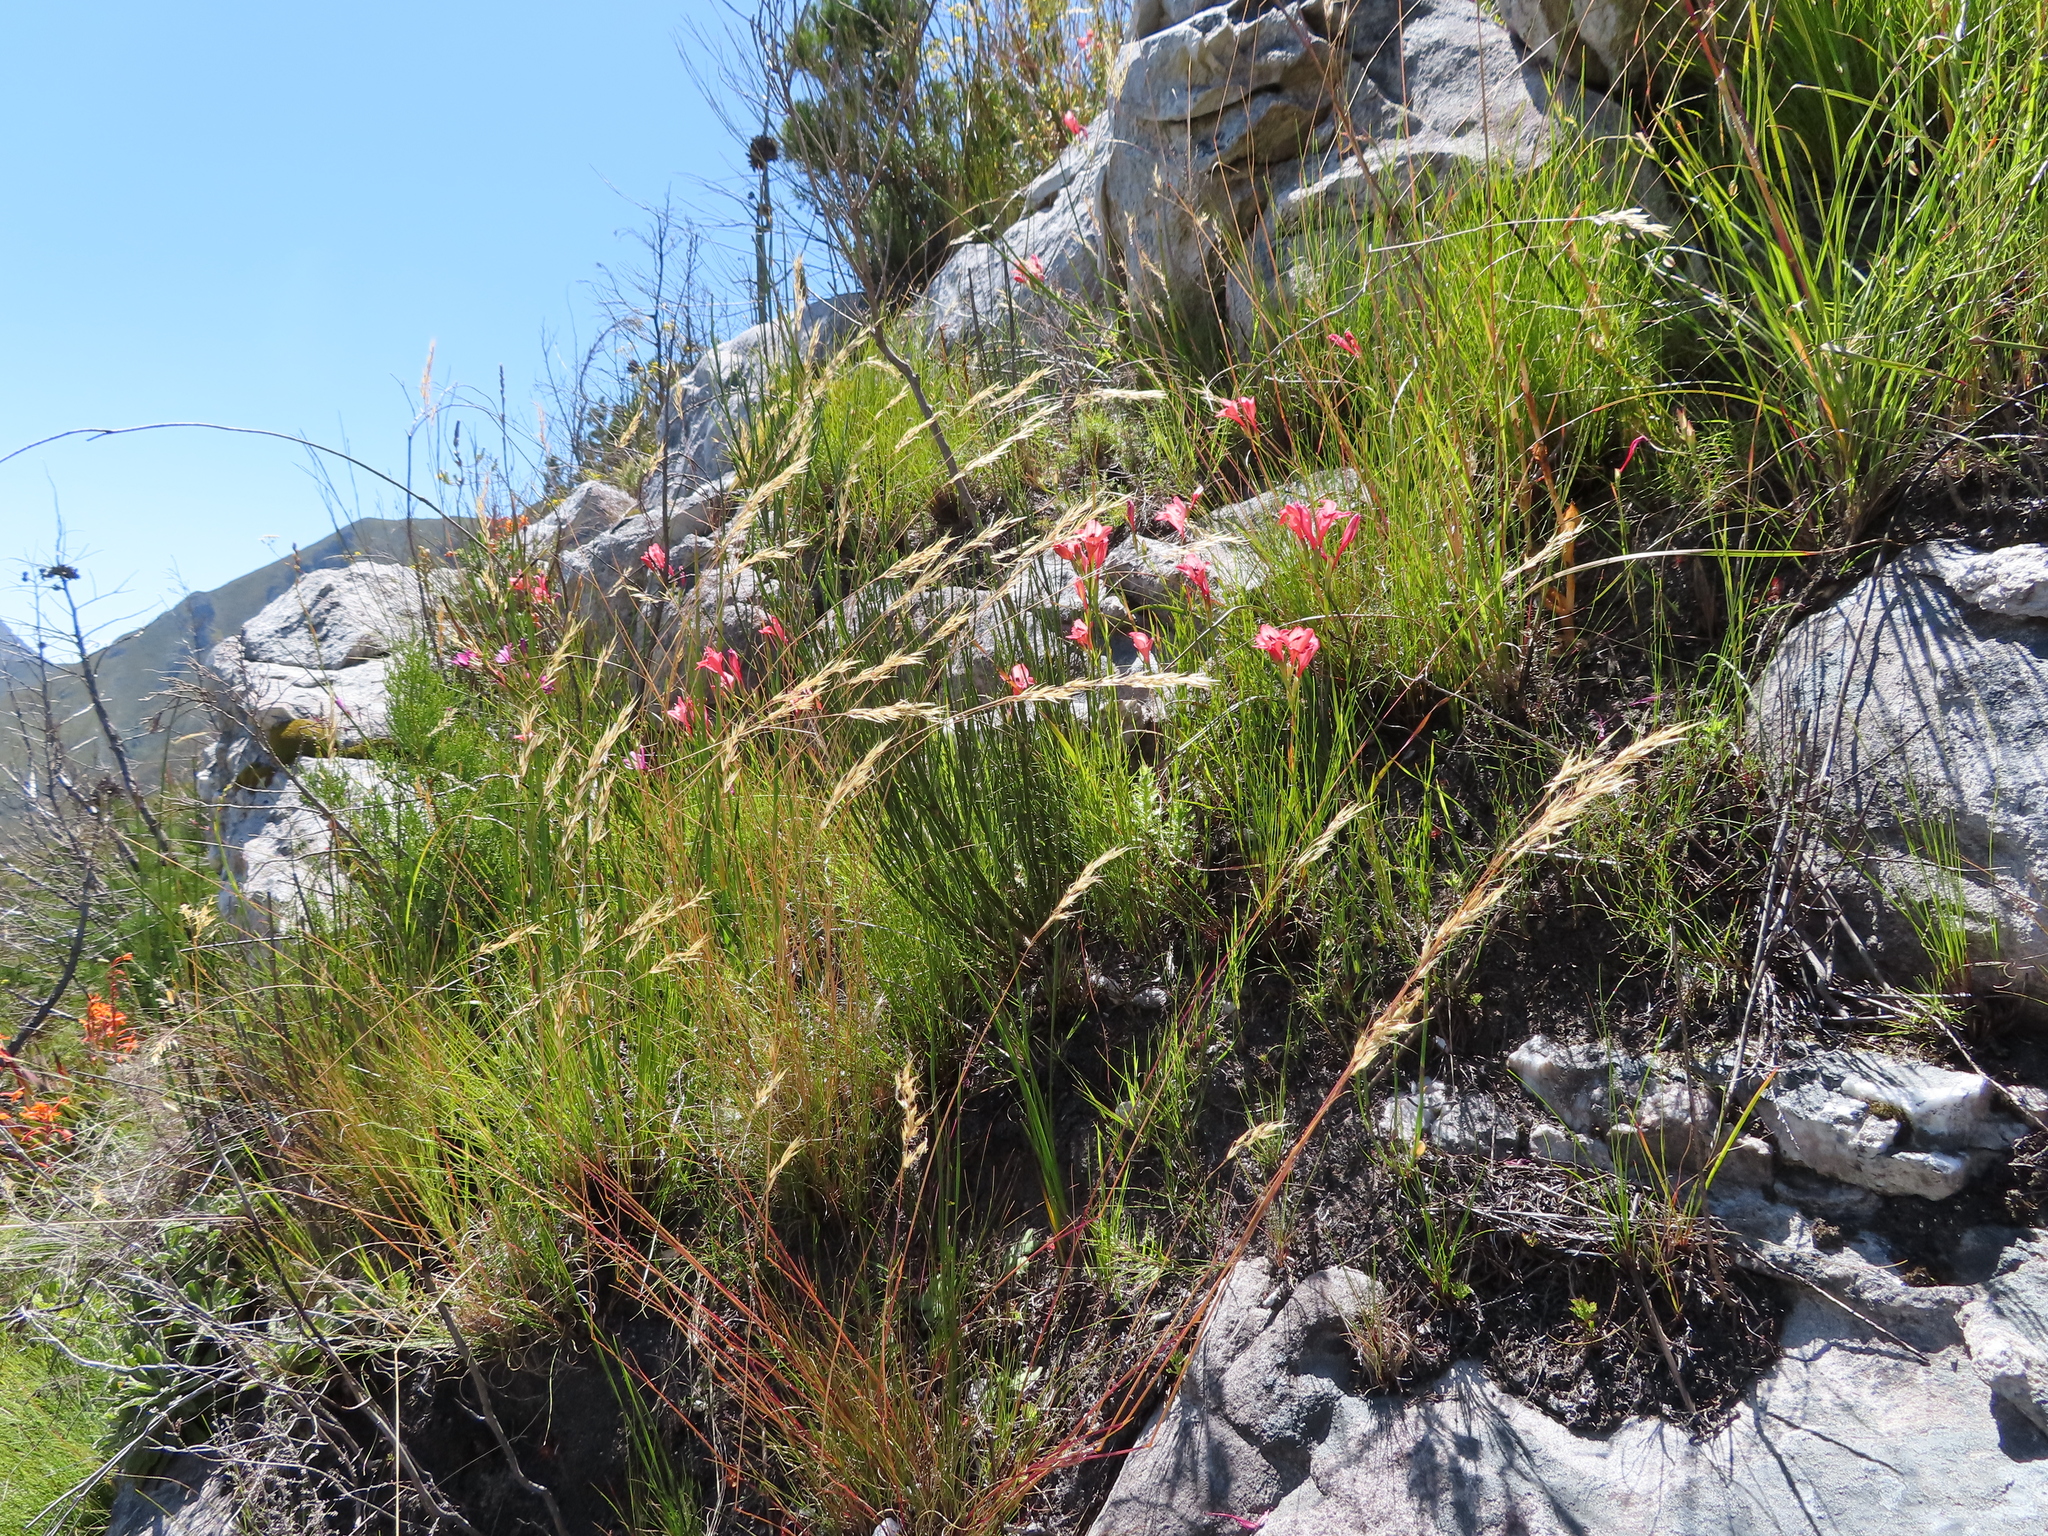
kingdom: Plantae
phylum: Tracheophyta
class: Liliopsida
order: Asparagales
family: Iridaceae
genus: Gladiolus
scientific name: Gladiolus oreocharis
